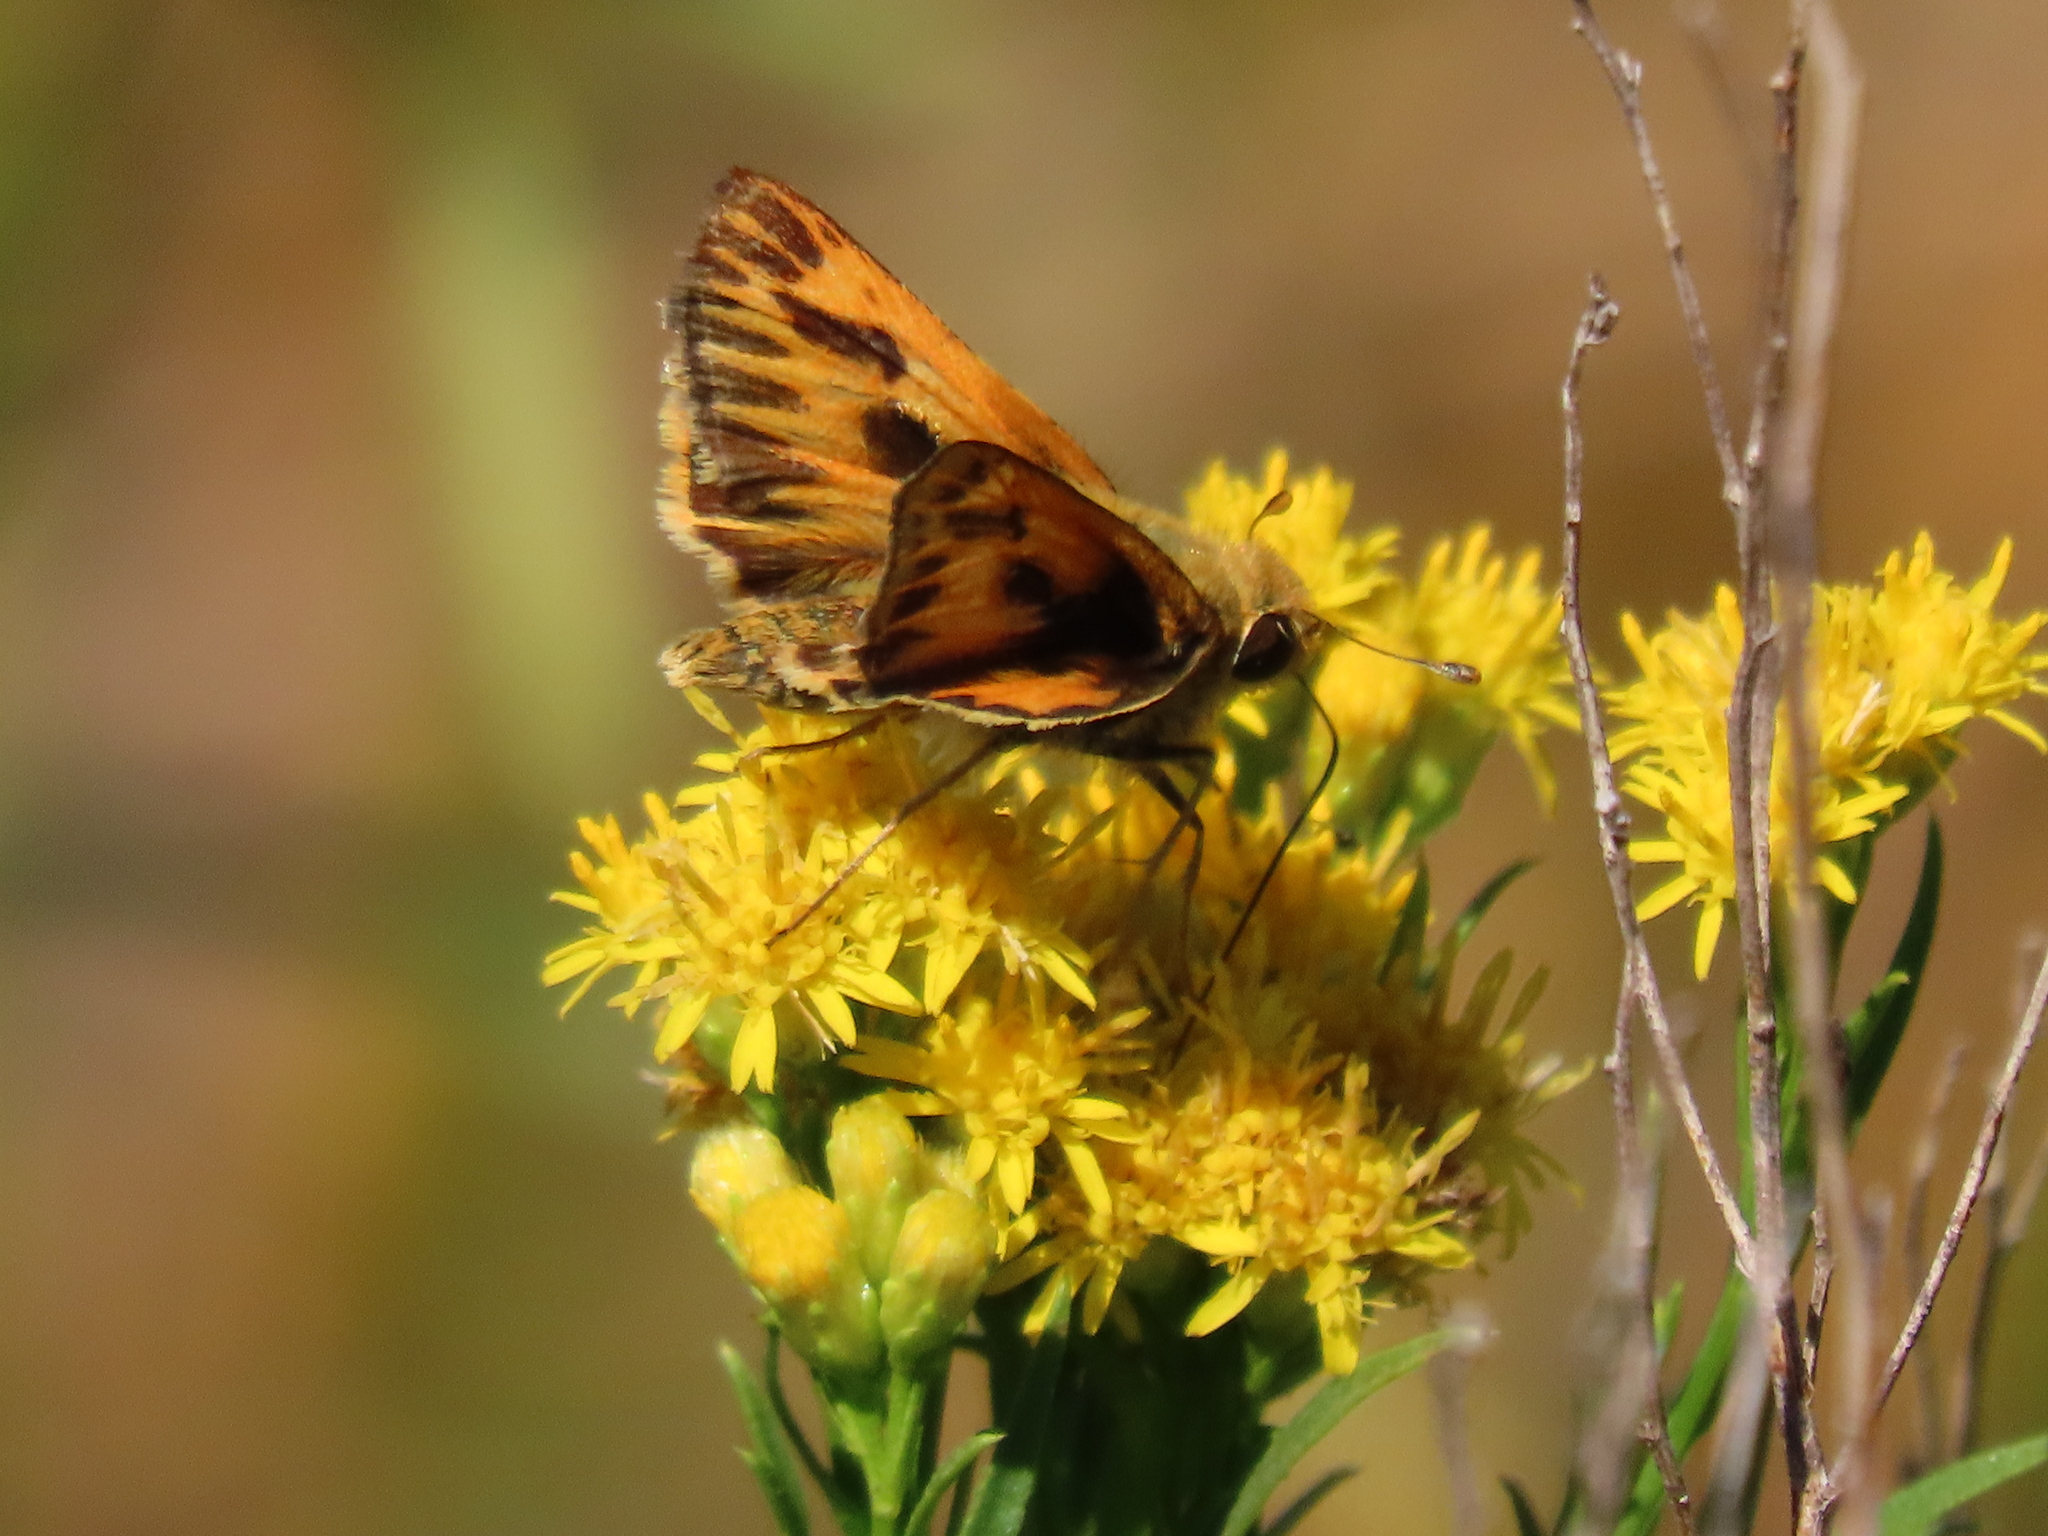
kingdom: Animalia
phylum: Arthropoda
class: Insecta
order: Lepidoptera
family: Hesperiidae
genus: Hylephila
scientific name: Hylephila phyleus
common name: Fiery skipper
